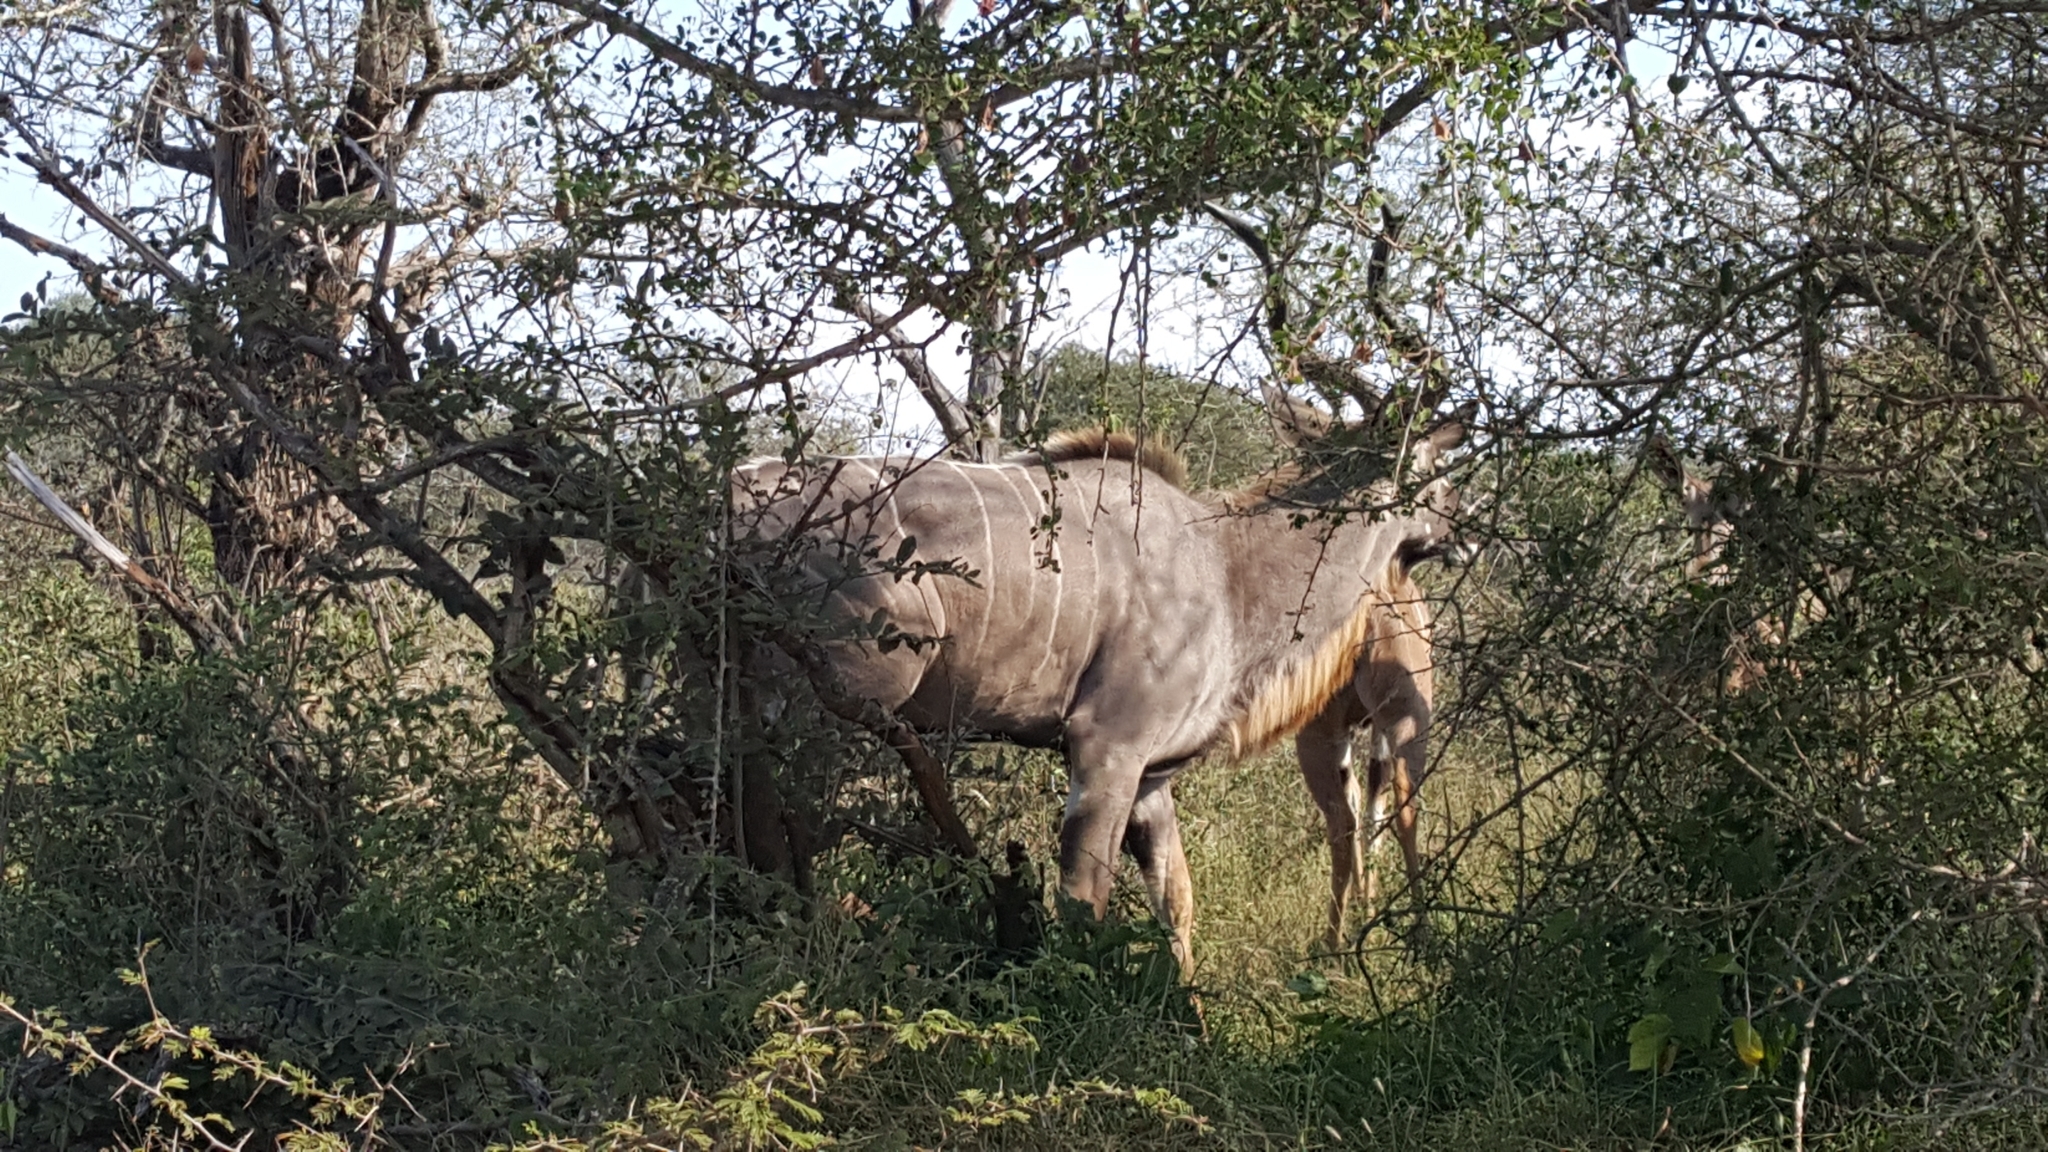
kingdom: Animalia
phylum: Chordata
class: Mammalia
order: Artiodactyla
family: Bovidae
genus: Tragelaphus
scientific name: Tragelaphus strepsiceros
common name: Greater kudu
